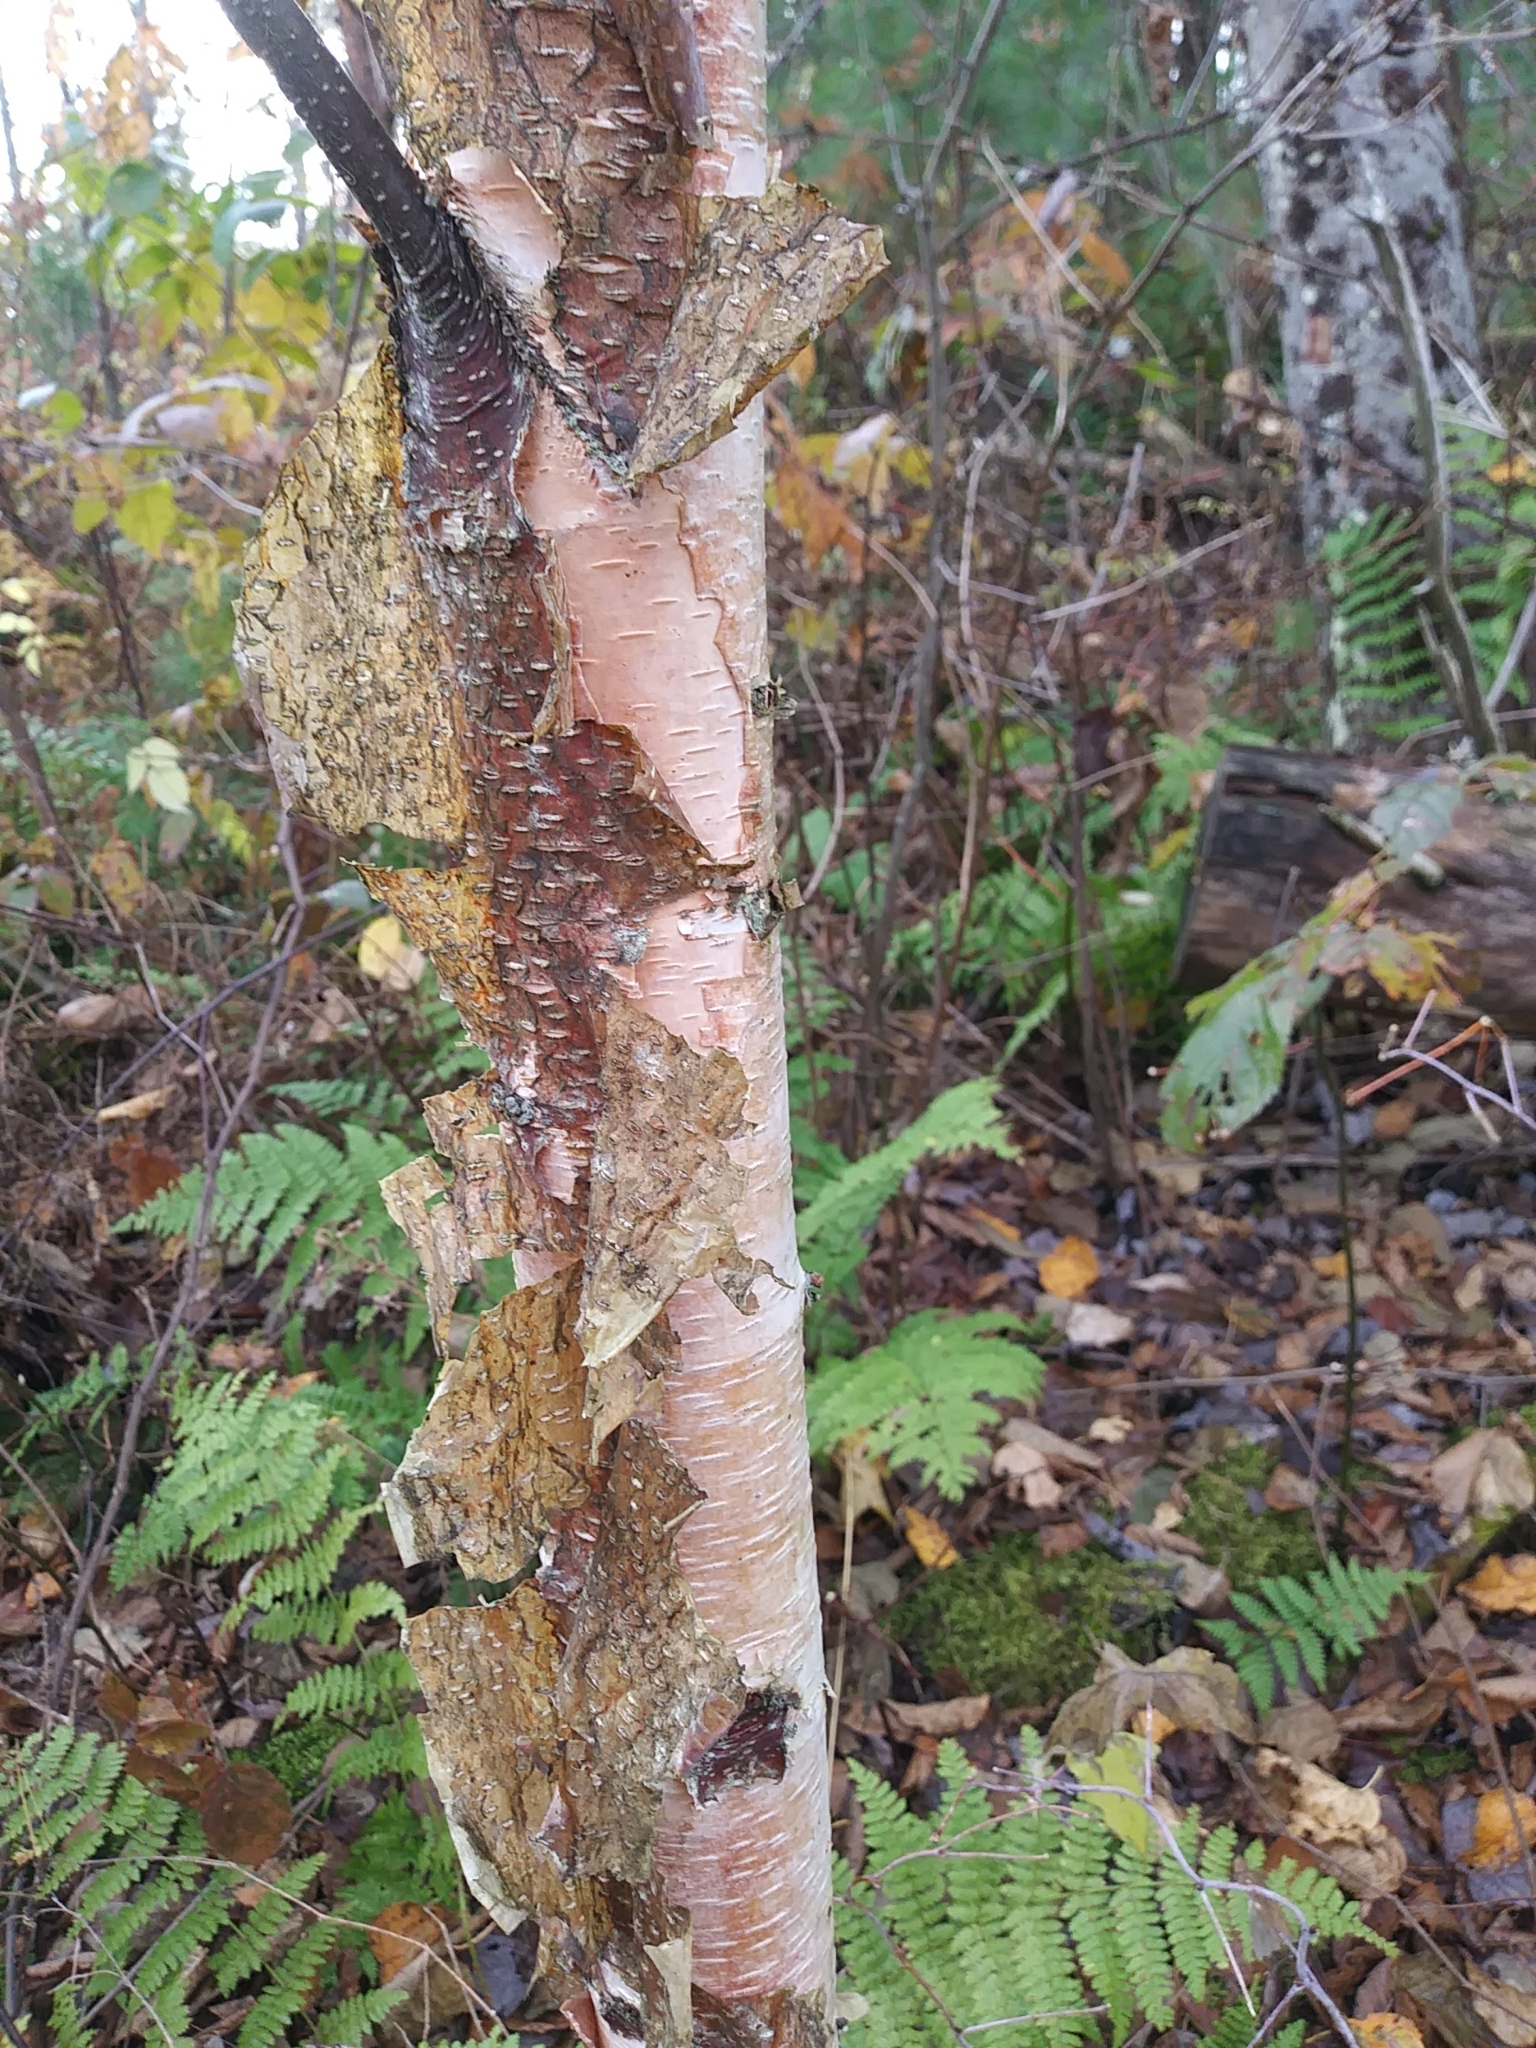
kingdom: Plantae
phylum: Tracheophyta
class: Magnoliopsida
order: Fagales
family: Betulaceae
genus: Betula
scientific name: Betula papyrifera
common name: Paper birch
